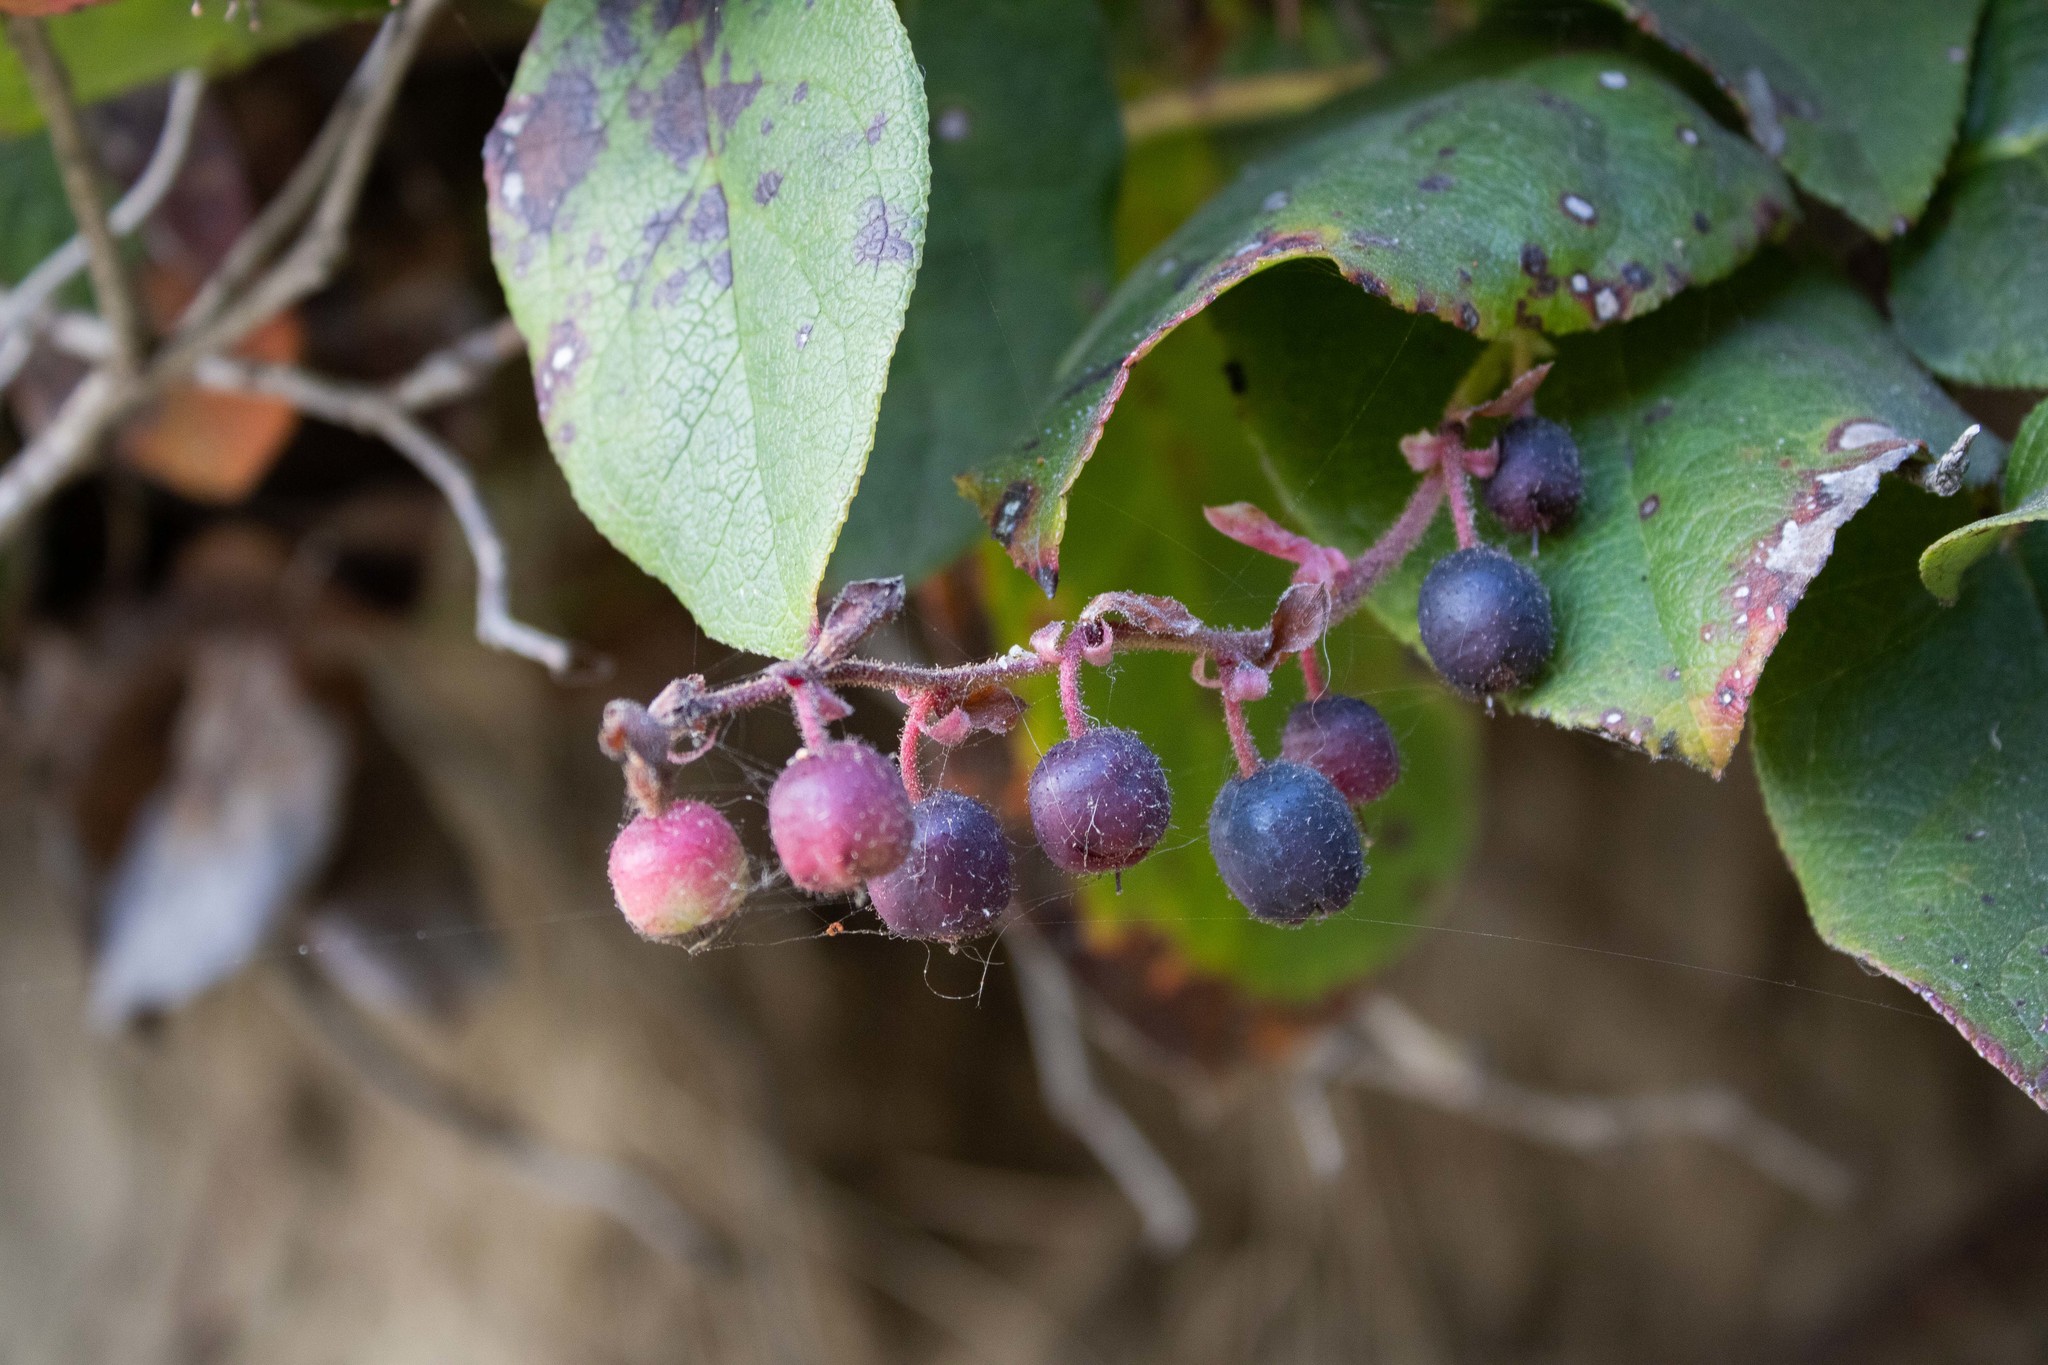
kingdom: Plantae
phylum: Tracheophyta
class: Magnoliopsida
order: Ericales
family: Ericaceae
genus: Gaultheria
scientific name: Gaultheria shallon
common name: Shallon
